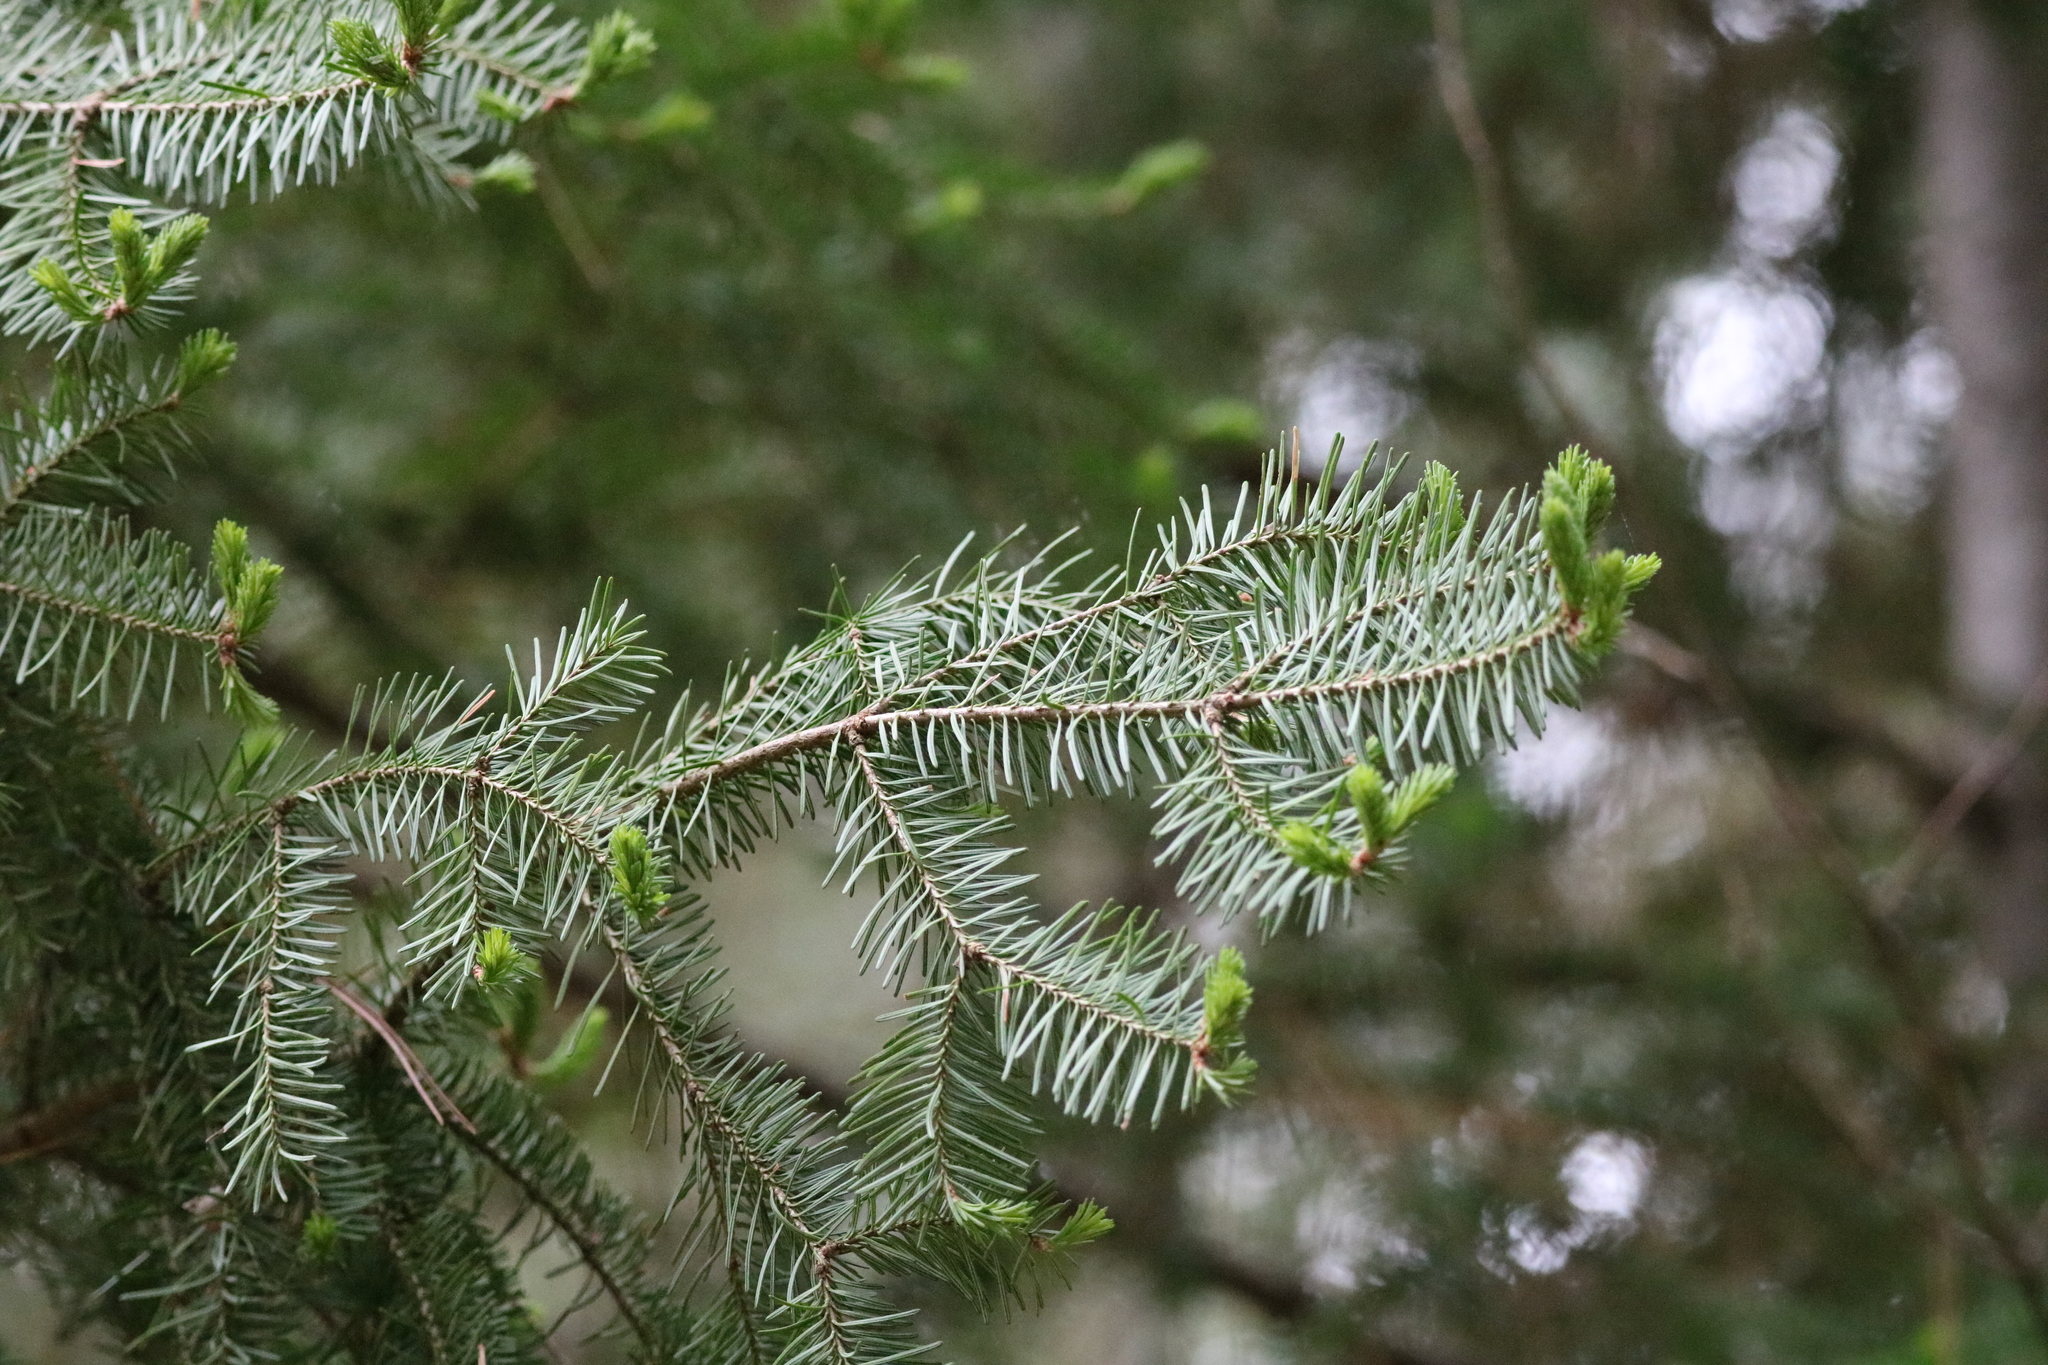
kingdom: Plantae
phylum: Tracheophyta
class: Pinopsida
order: Pinales
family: Pinaceae
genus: Abies
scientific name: Abies balsamea
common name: Balsam fir
